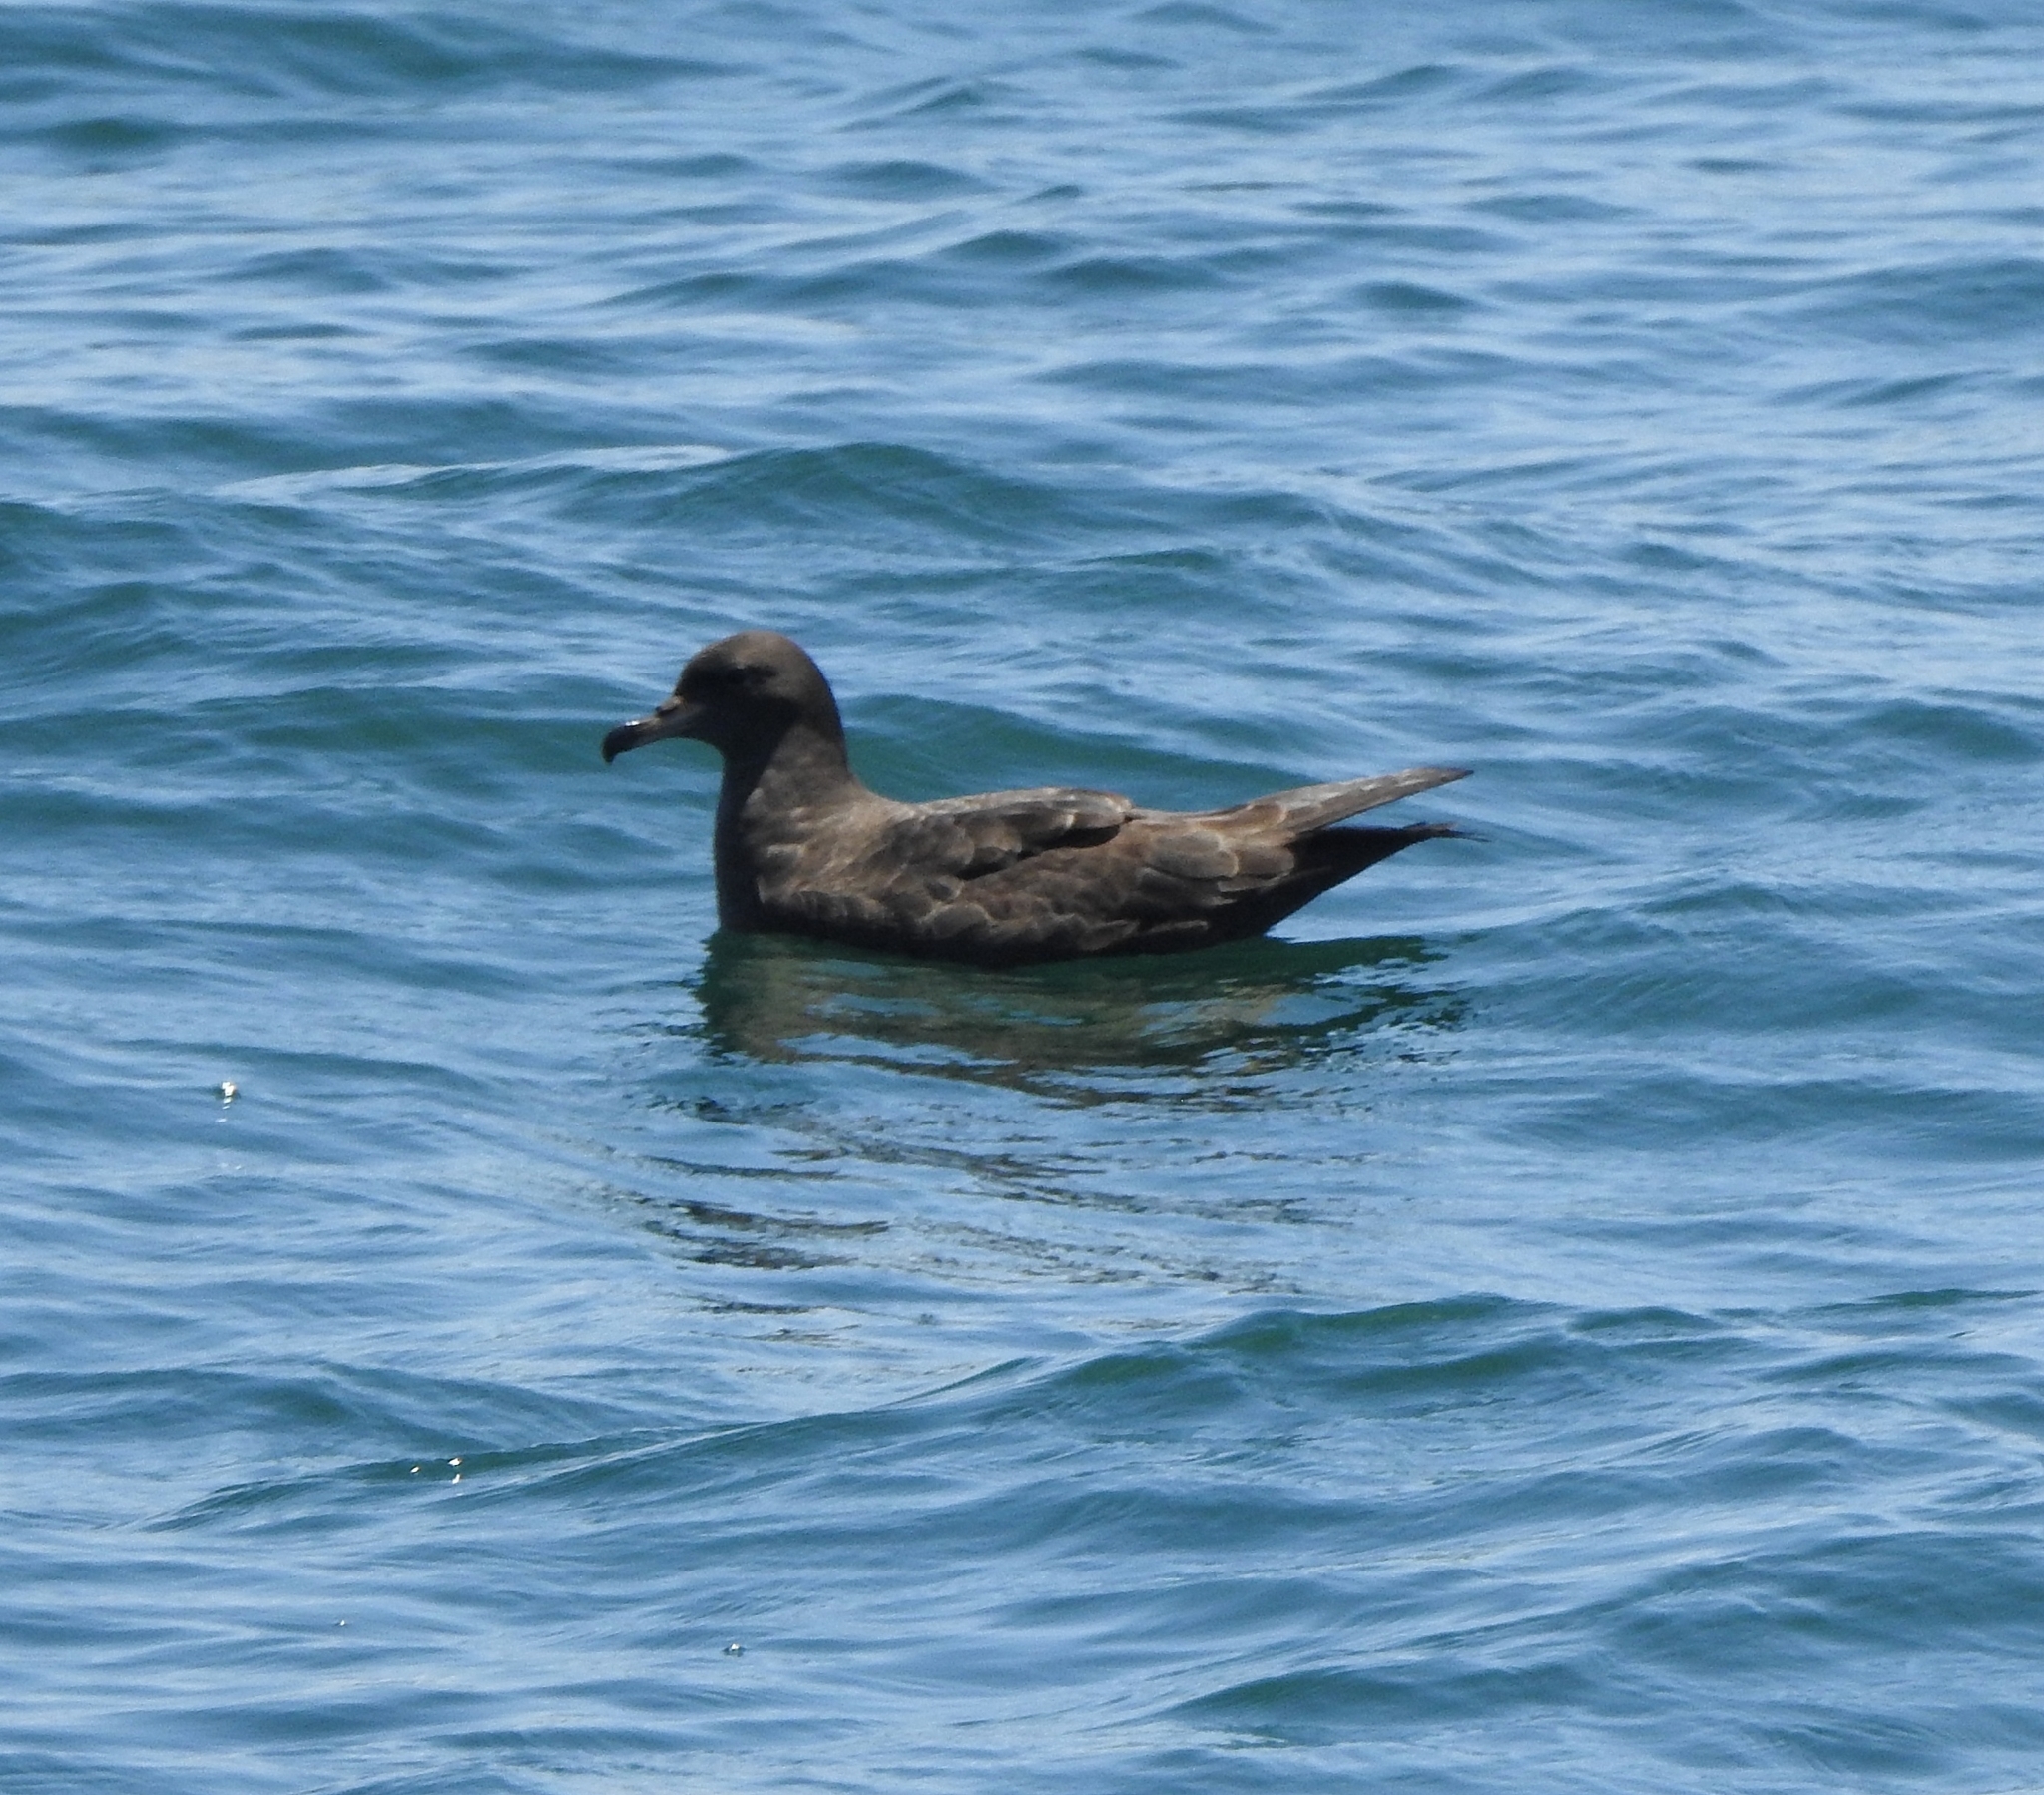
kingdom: Animalia
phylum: Chordata
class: Aves
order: Procellariiformes
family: Procellariidae
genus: Puffinus
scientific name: Puffinus carneipes
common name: Flesh-footed shearwater
